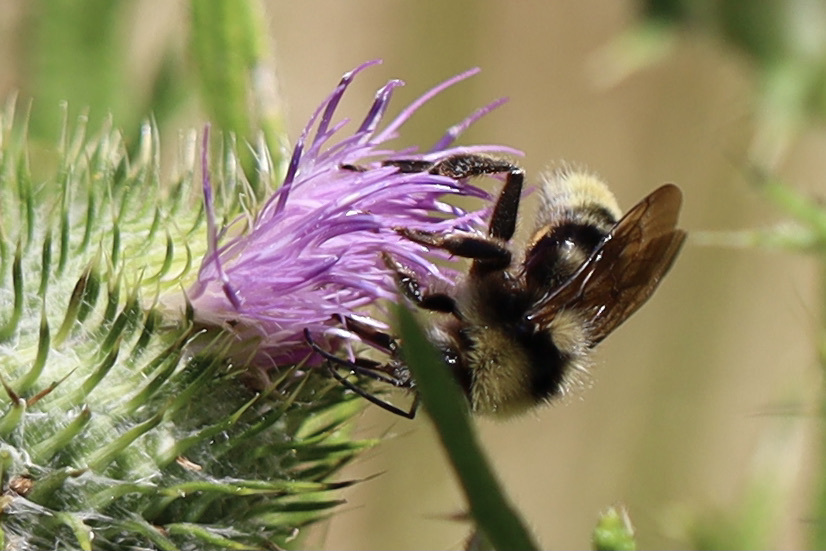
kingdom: Animalia
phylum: Arthropoda
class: Insecta
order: Hymenoptera
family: Apidae
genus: Bombus
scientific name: Bombus californicus
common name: California bumble bee
